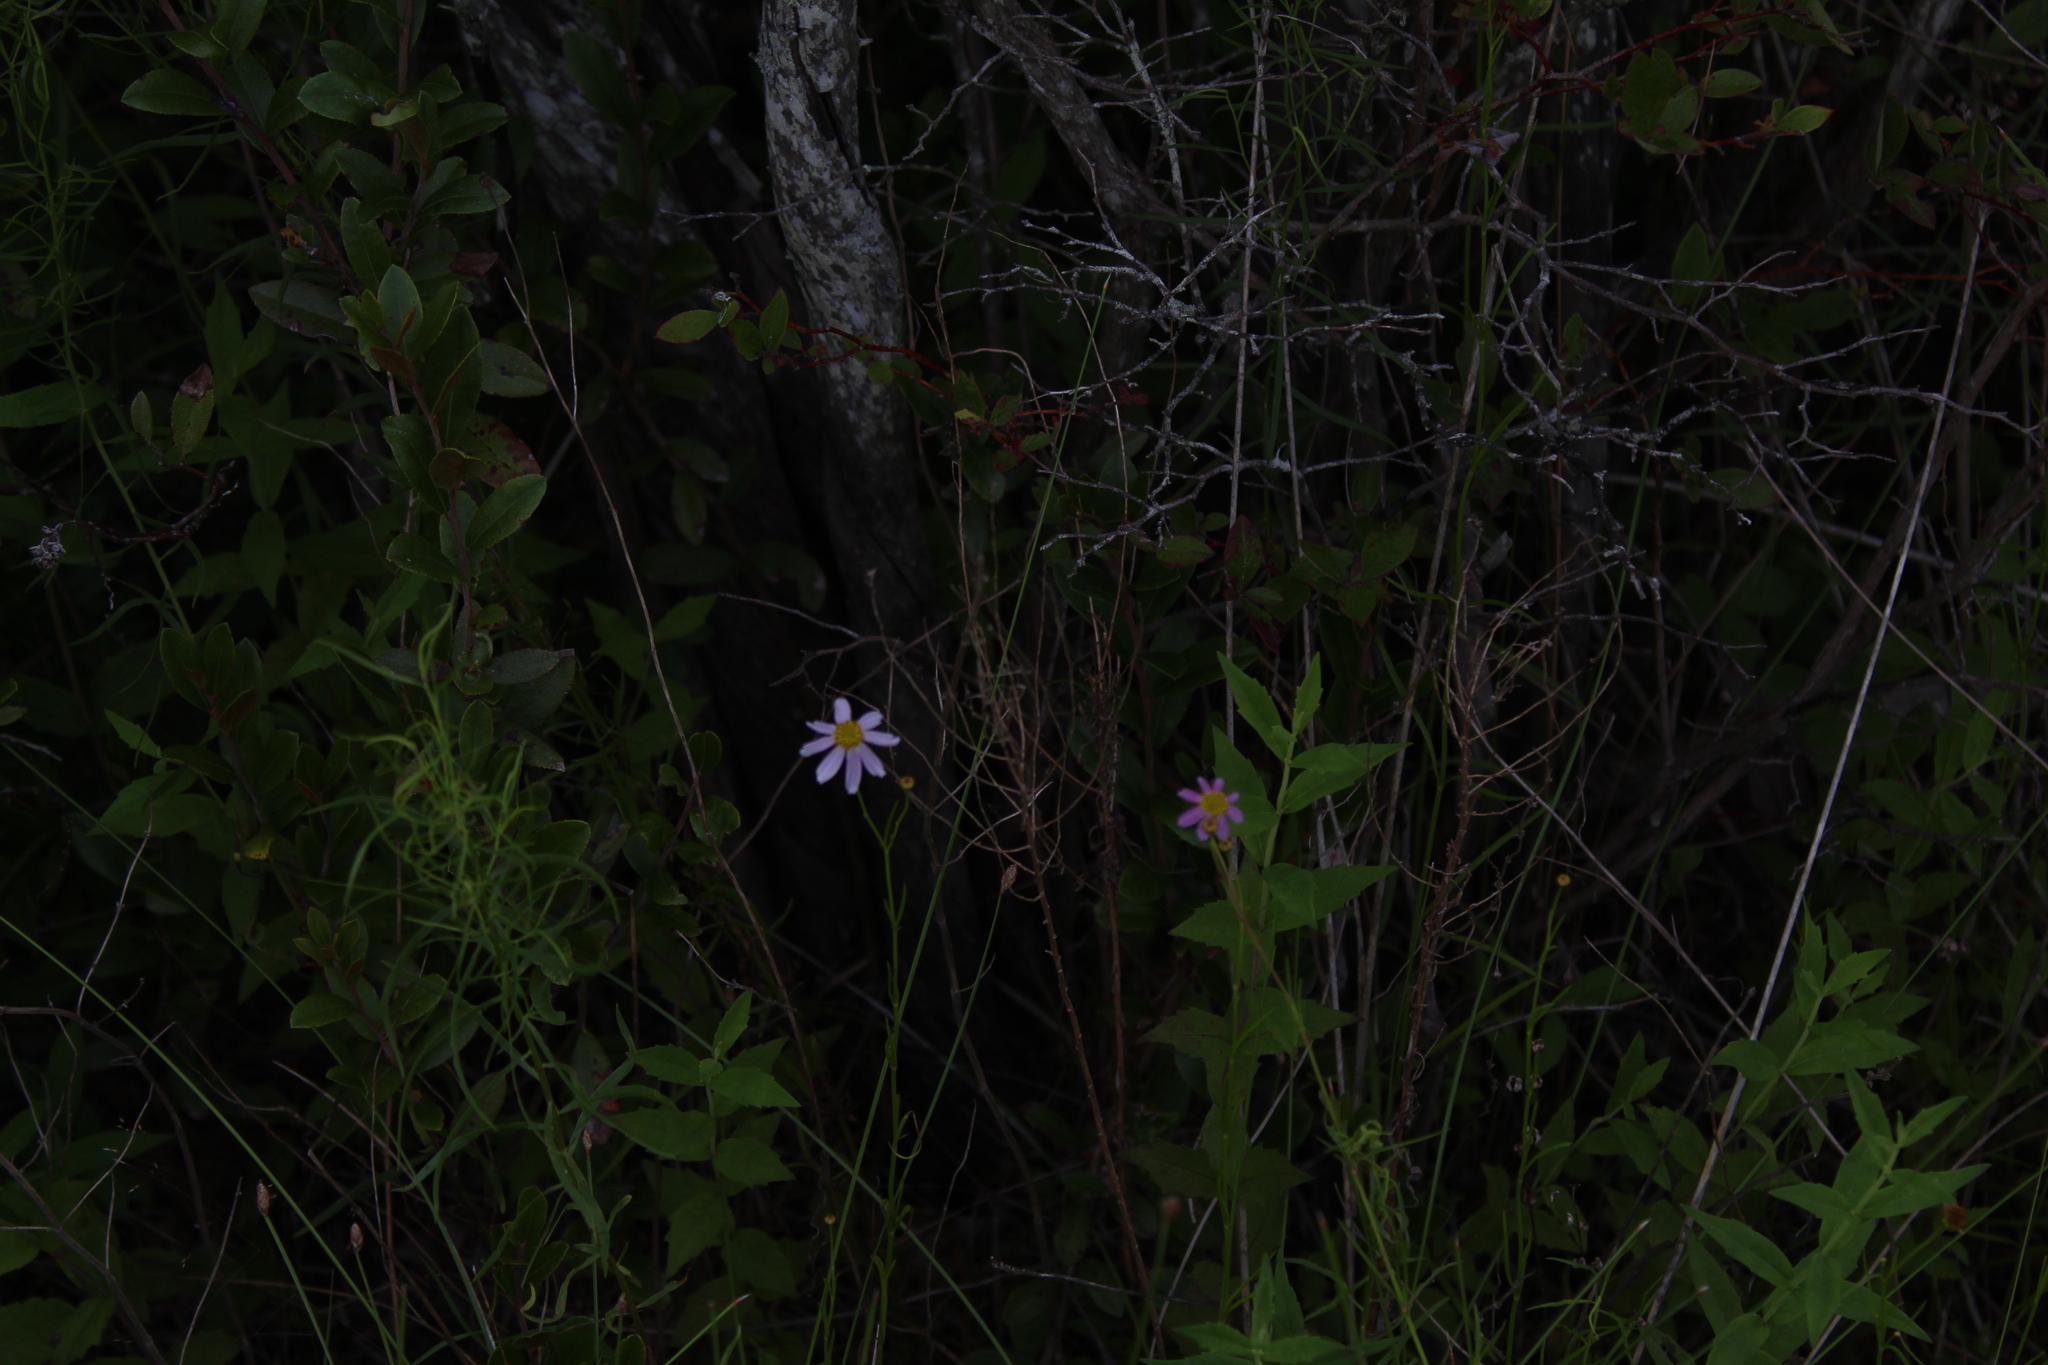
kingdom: Plantae
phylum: Tracheophyta
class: Magnoliopsida
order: Asterales
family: Asteraceae
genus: Coreopsis
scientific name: Coreopsis rosea
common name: Pink coreopsis
